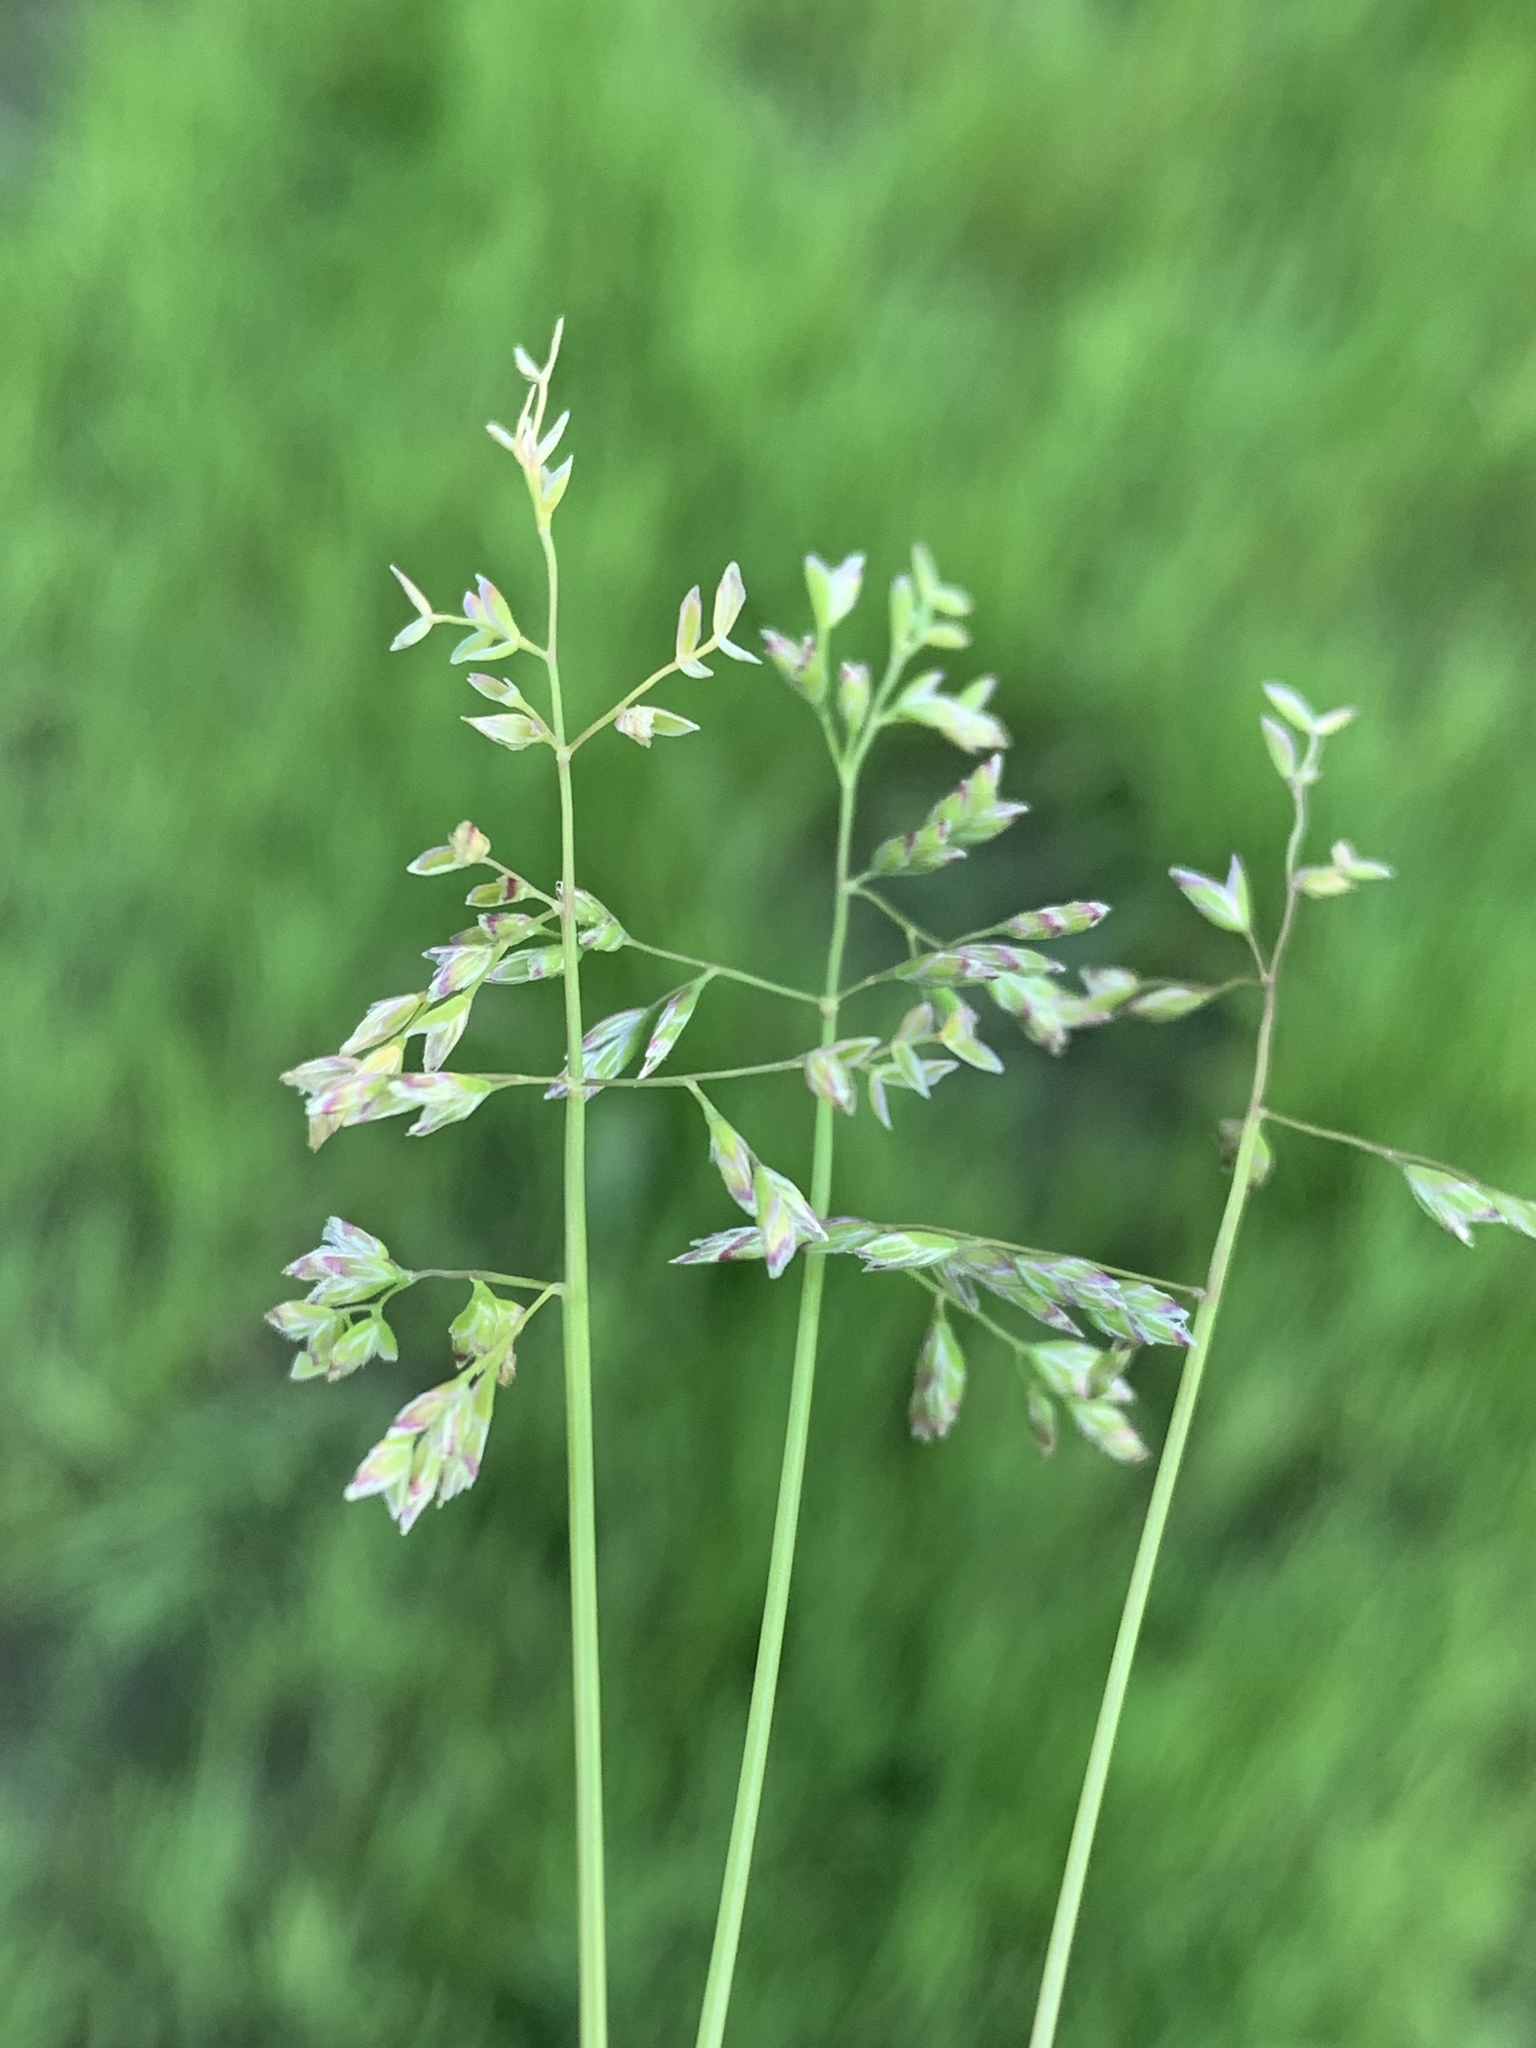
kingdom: Plantae
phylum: Tracheophyta
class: Liliopsida
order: Poales
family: Poaceae
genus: Poa
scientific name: Poa annua
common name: Annual bluegrass
